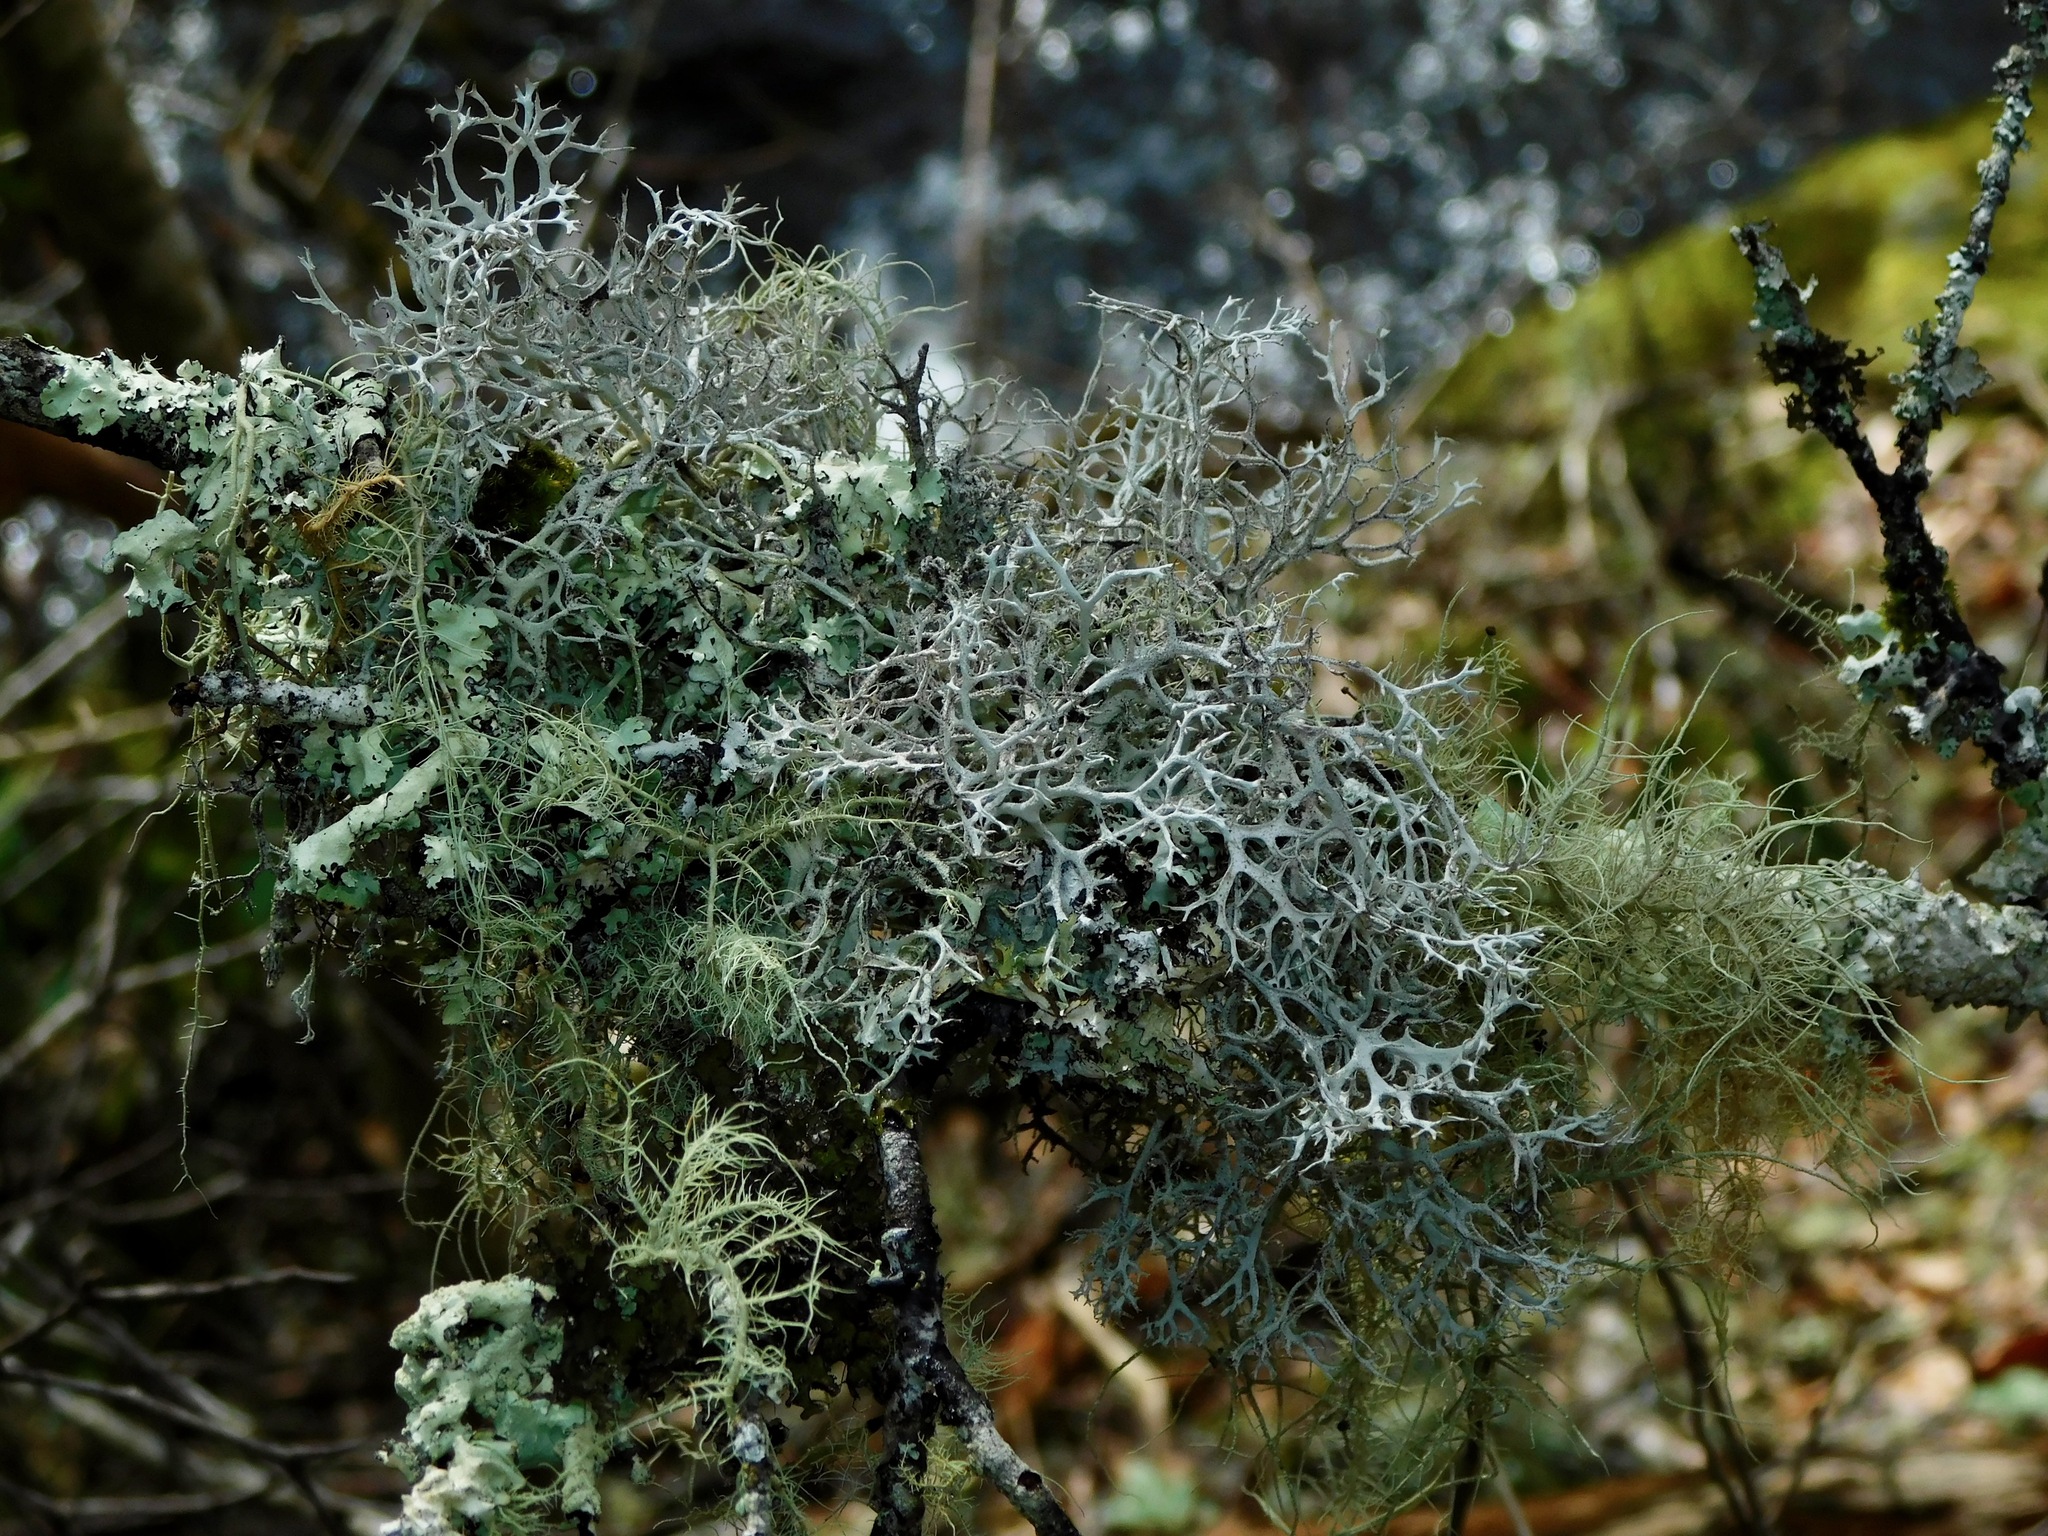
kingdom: Fungi
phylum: Ascomycota
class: Lecanoromycetes
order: Lecanorales
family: Parmeliaceae
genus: Pseudevernia
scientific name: Pseudevernia consocians
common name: Common antler lichen
